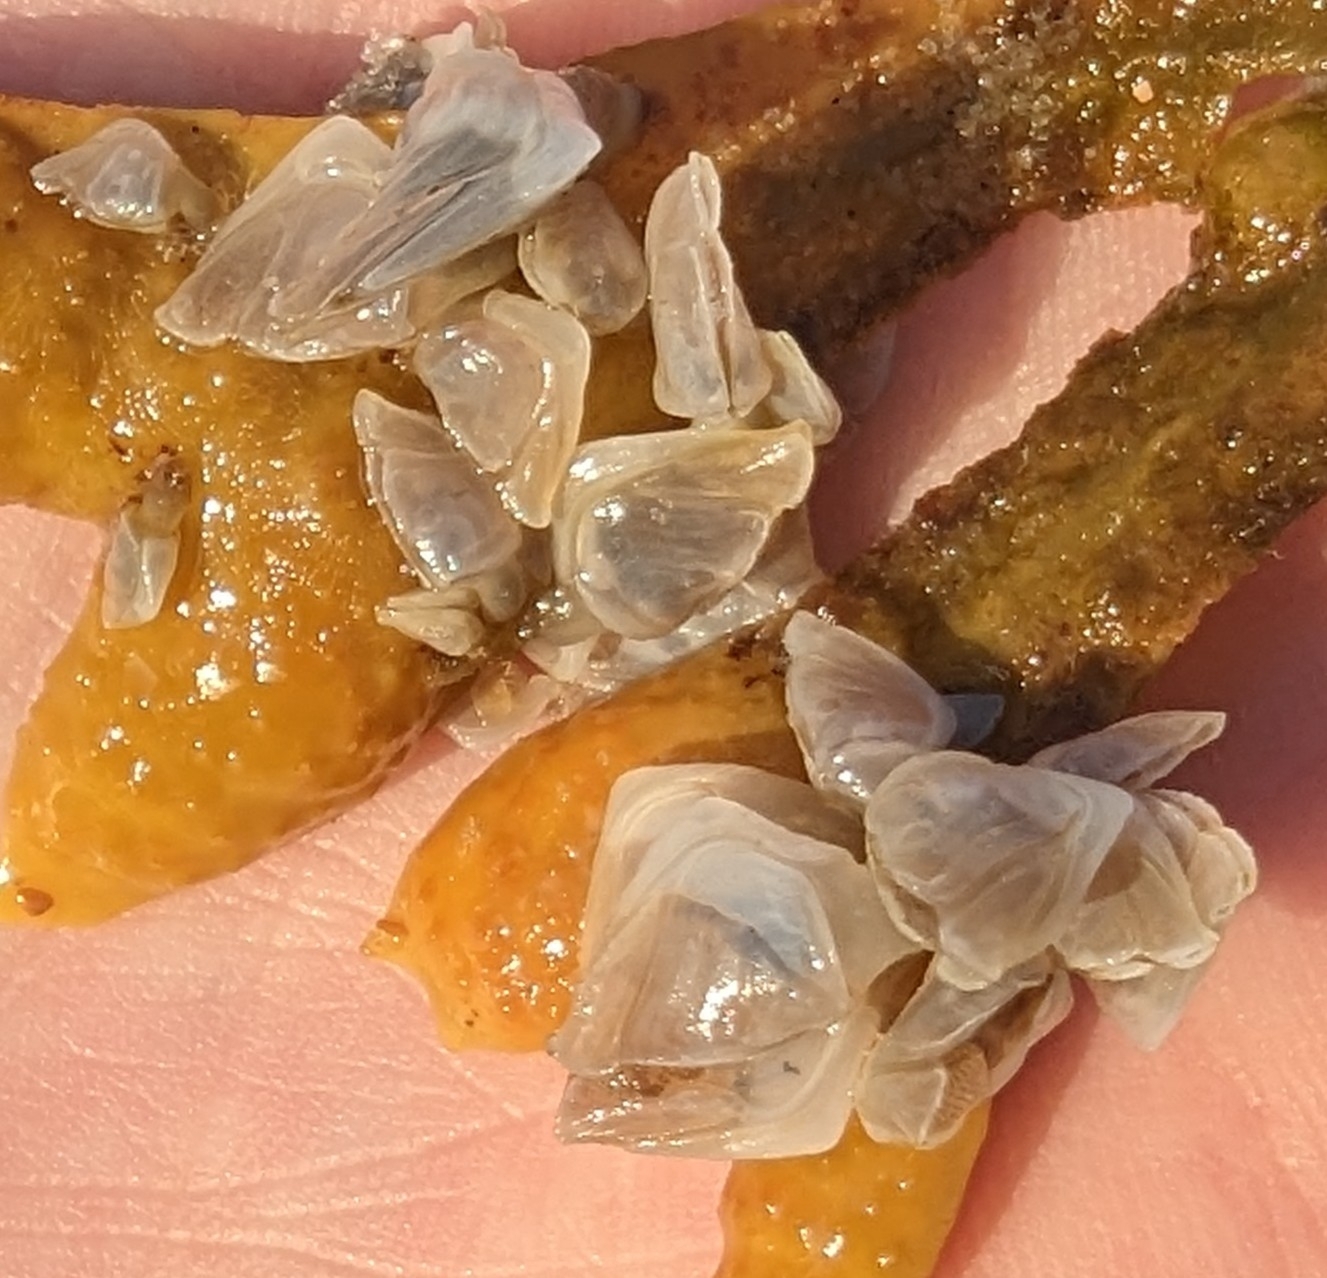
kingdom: Animalia
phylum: Arthropoda
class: Maxillopoda
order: Pedunculata
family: Lepadidae
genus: Dosima
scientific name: Dosima fascicularis
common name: Buoy barnacle
